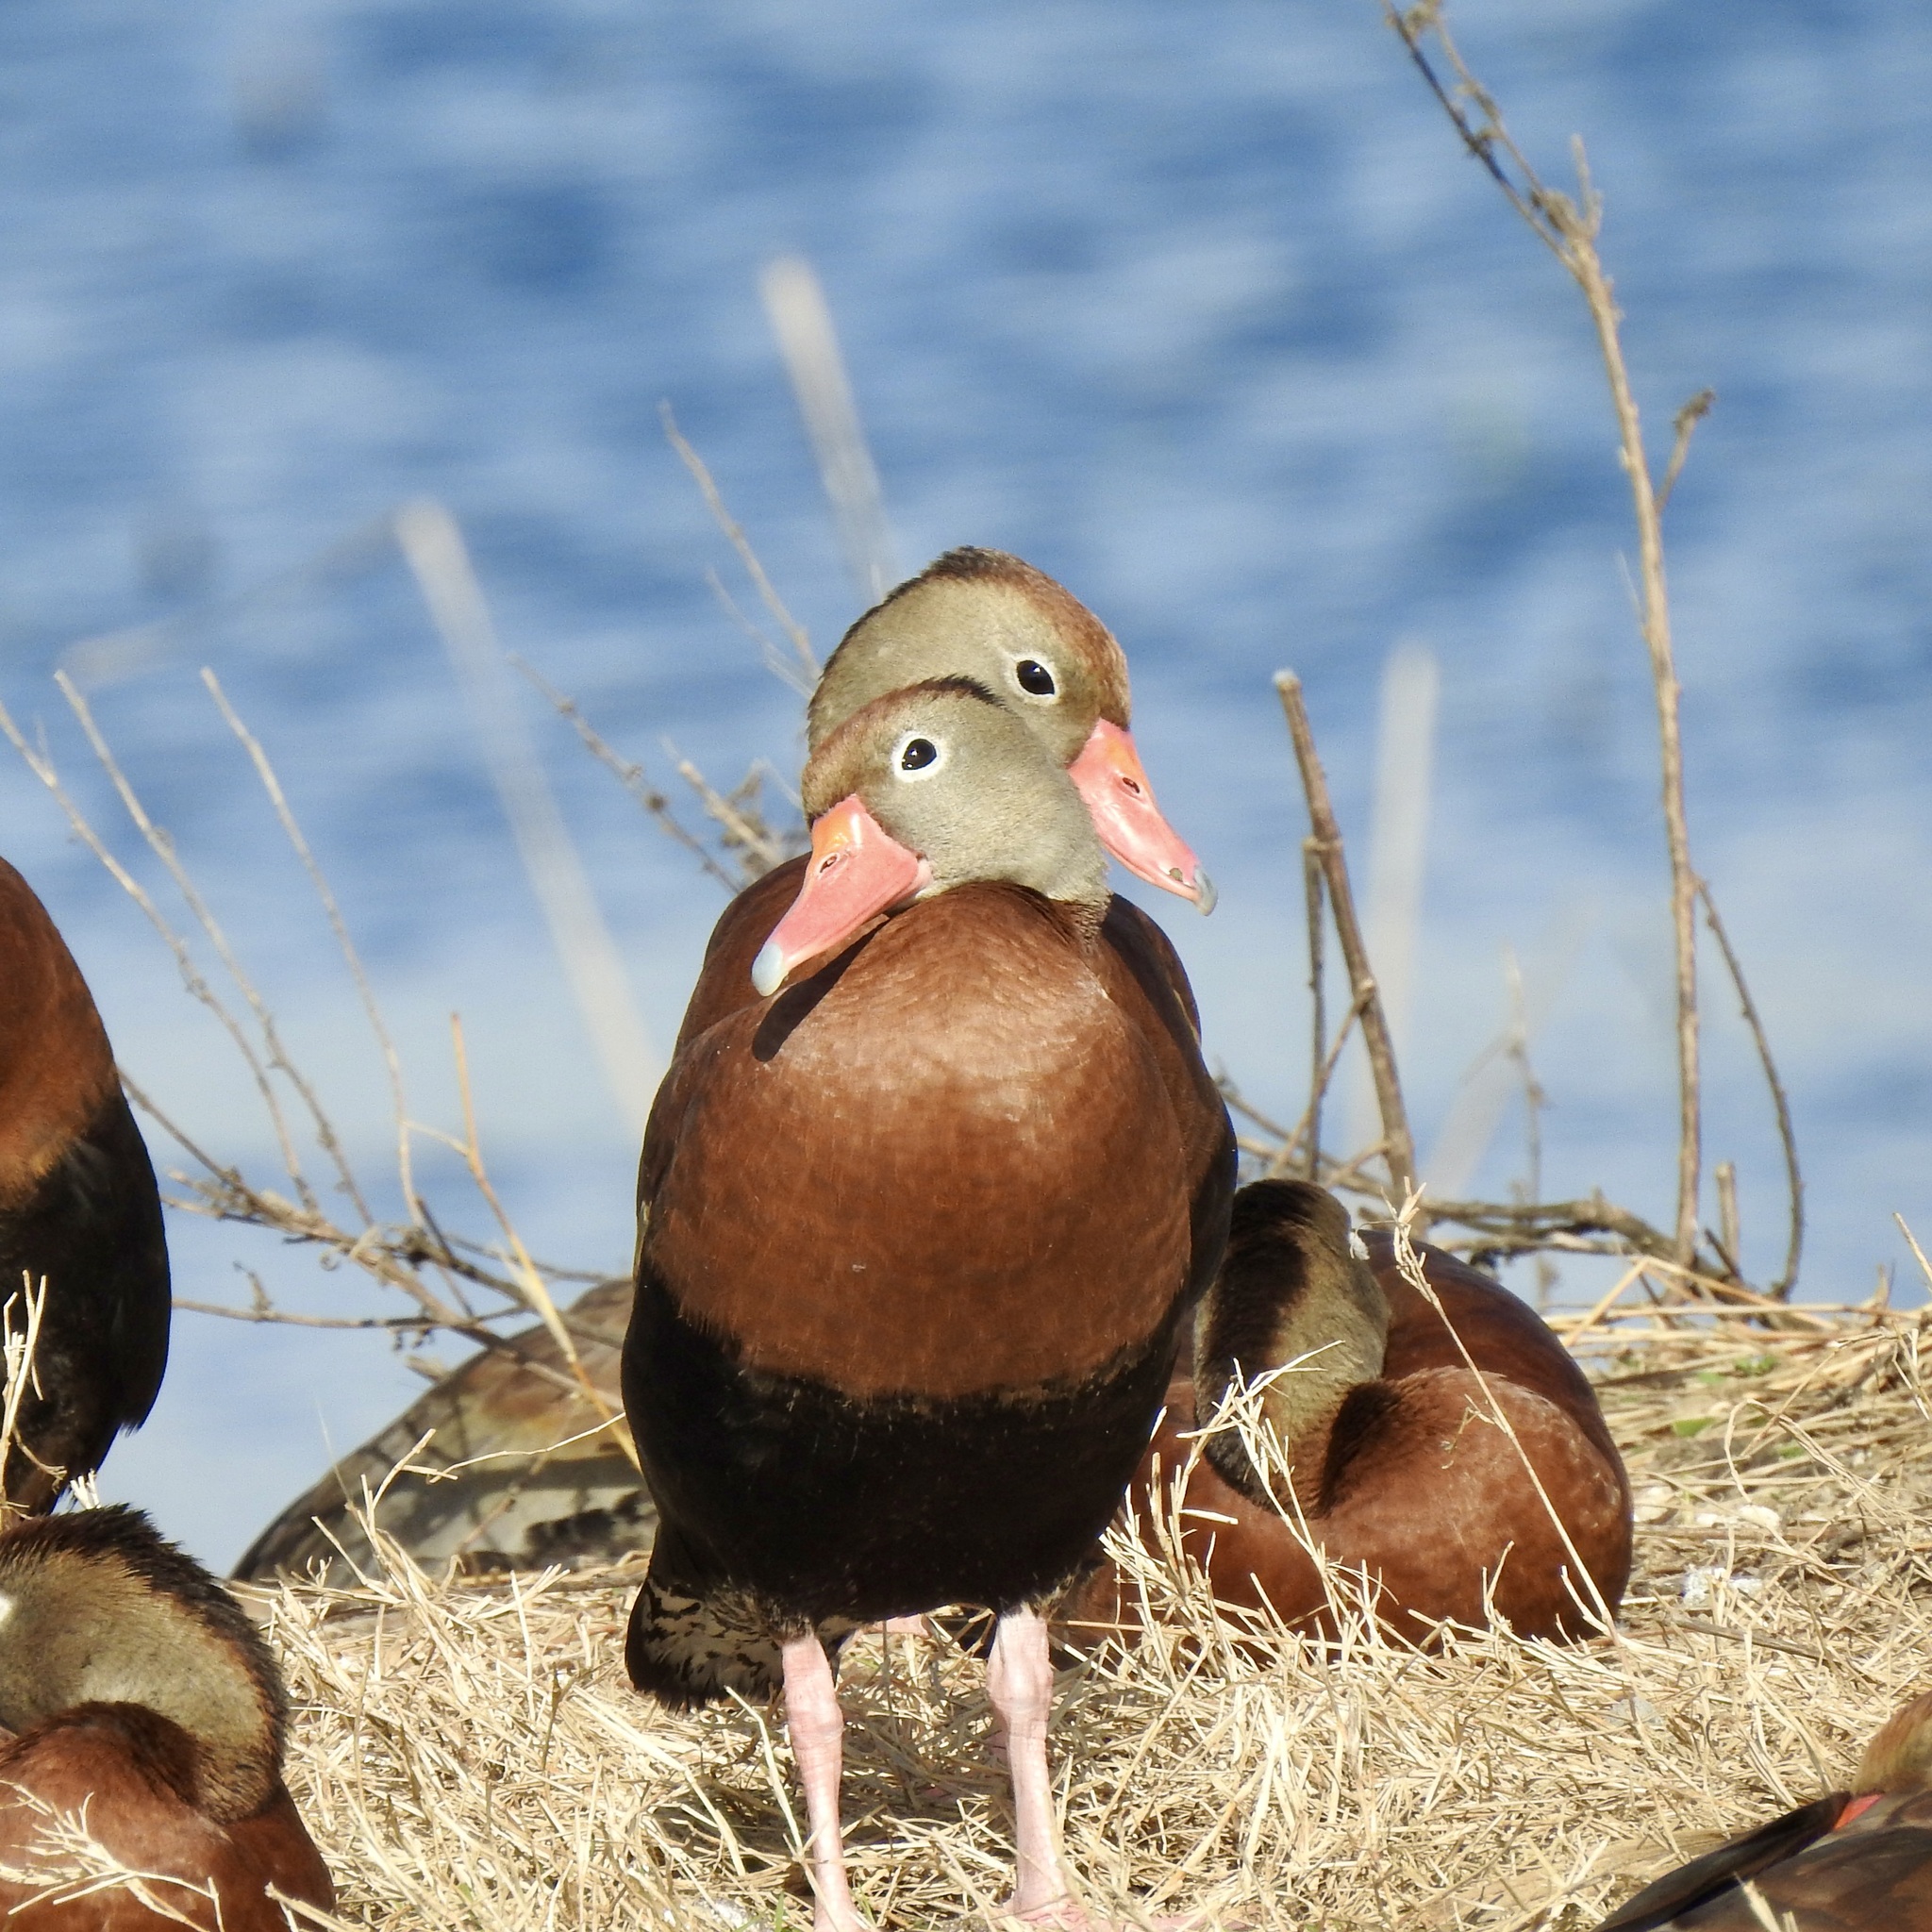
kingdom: Animalia
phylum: Chordata
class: Aves
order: Anseriformes
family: Anatidae
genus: Dendrocygna
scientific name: Dendrocygna autumnalis
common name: Black-bellied whistling duck
